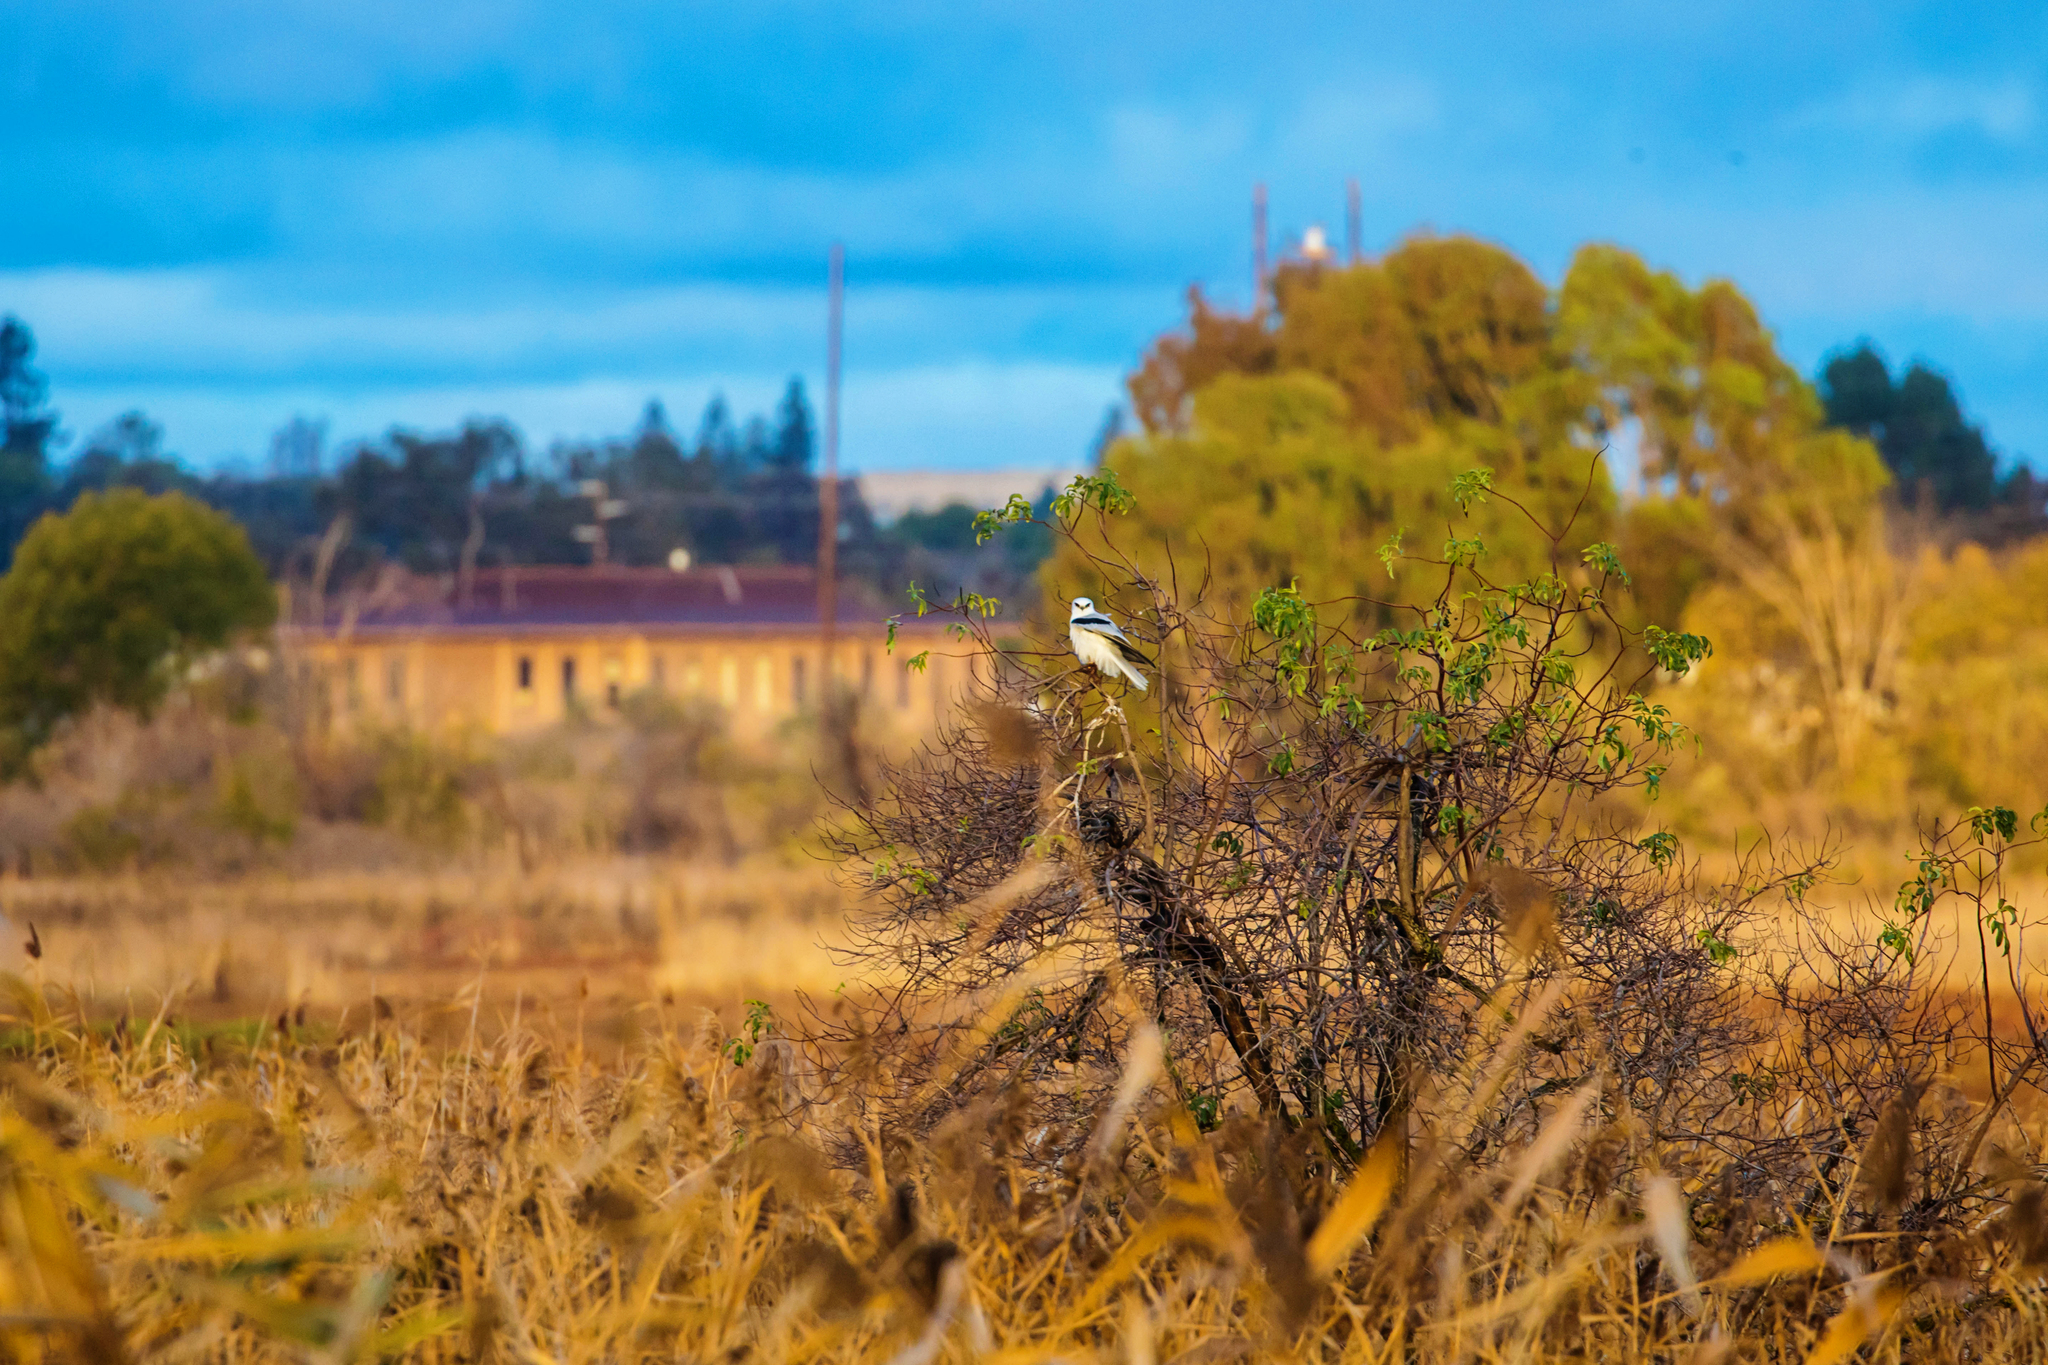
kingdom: Animalia
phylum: Chordata
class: Aves
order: Accipitriformes
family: Accipitridae
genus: Elanus
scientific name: Elanus leucurus
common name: White-tailed kite
